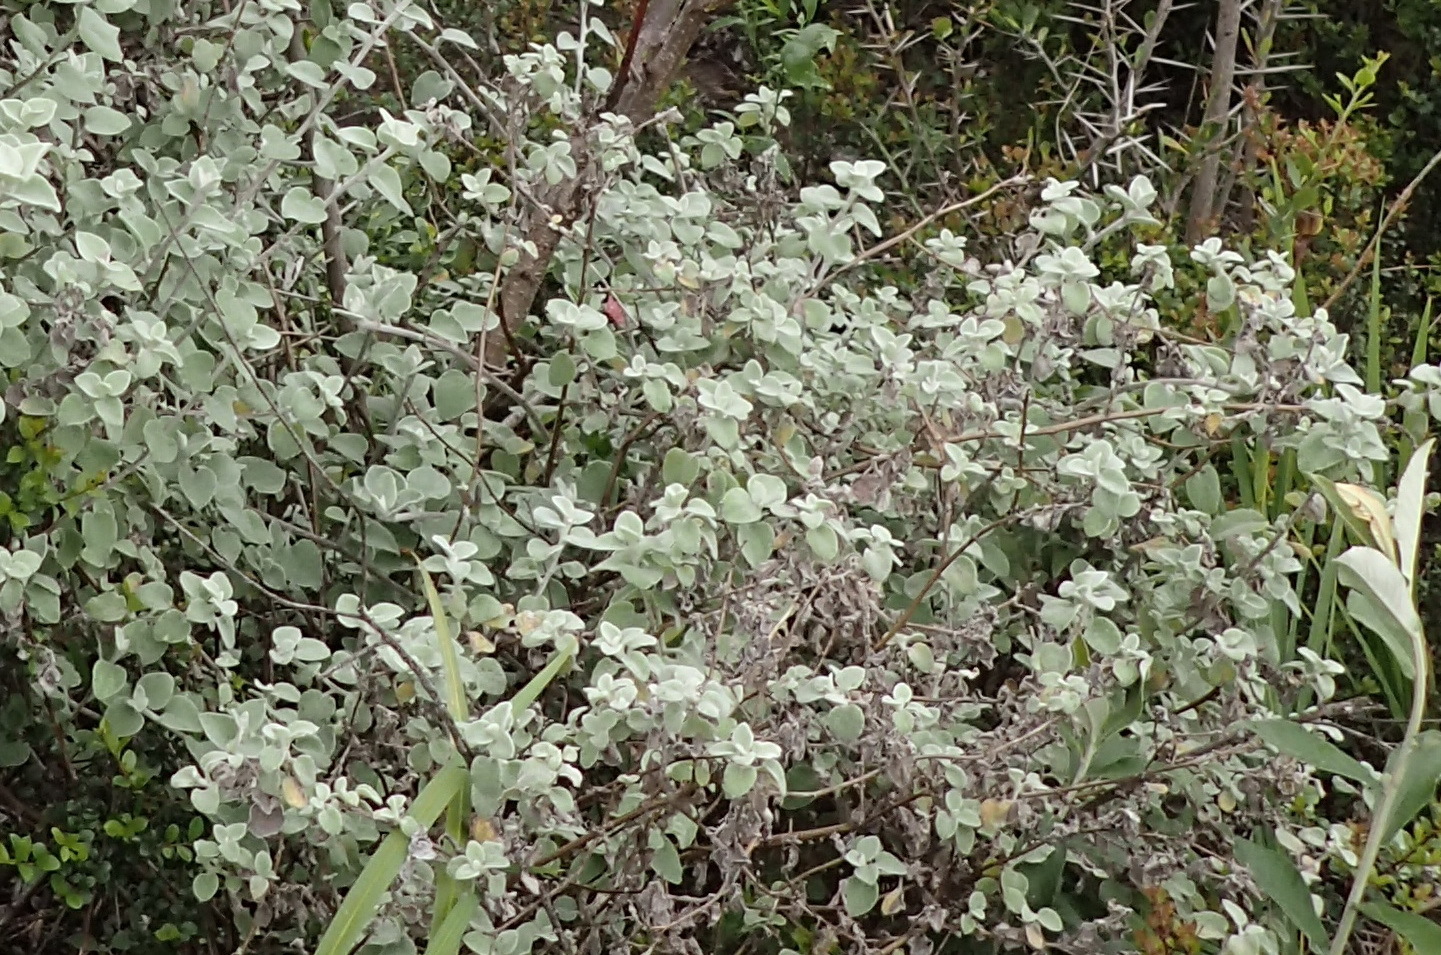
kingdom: Plantae
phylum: Tracheophyta
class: Magnoliopsida
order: Asterales
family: Asteraceae
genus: Helichrysum
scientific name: Helichrysum petiolare
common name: Licorice-plant
